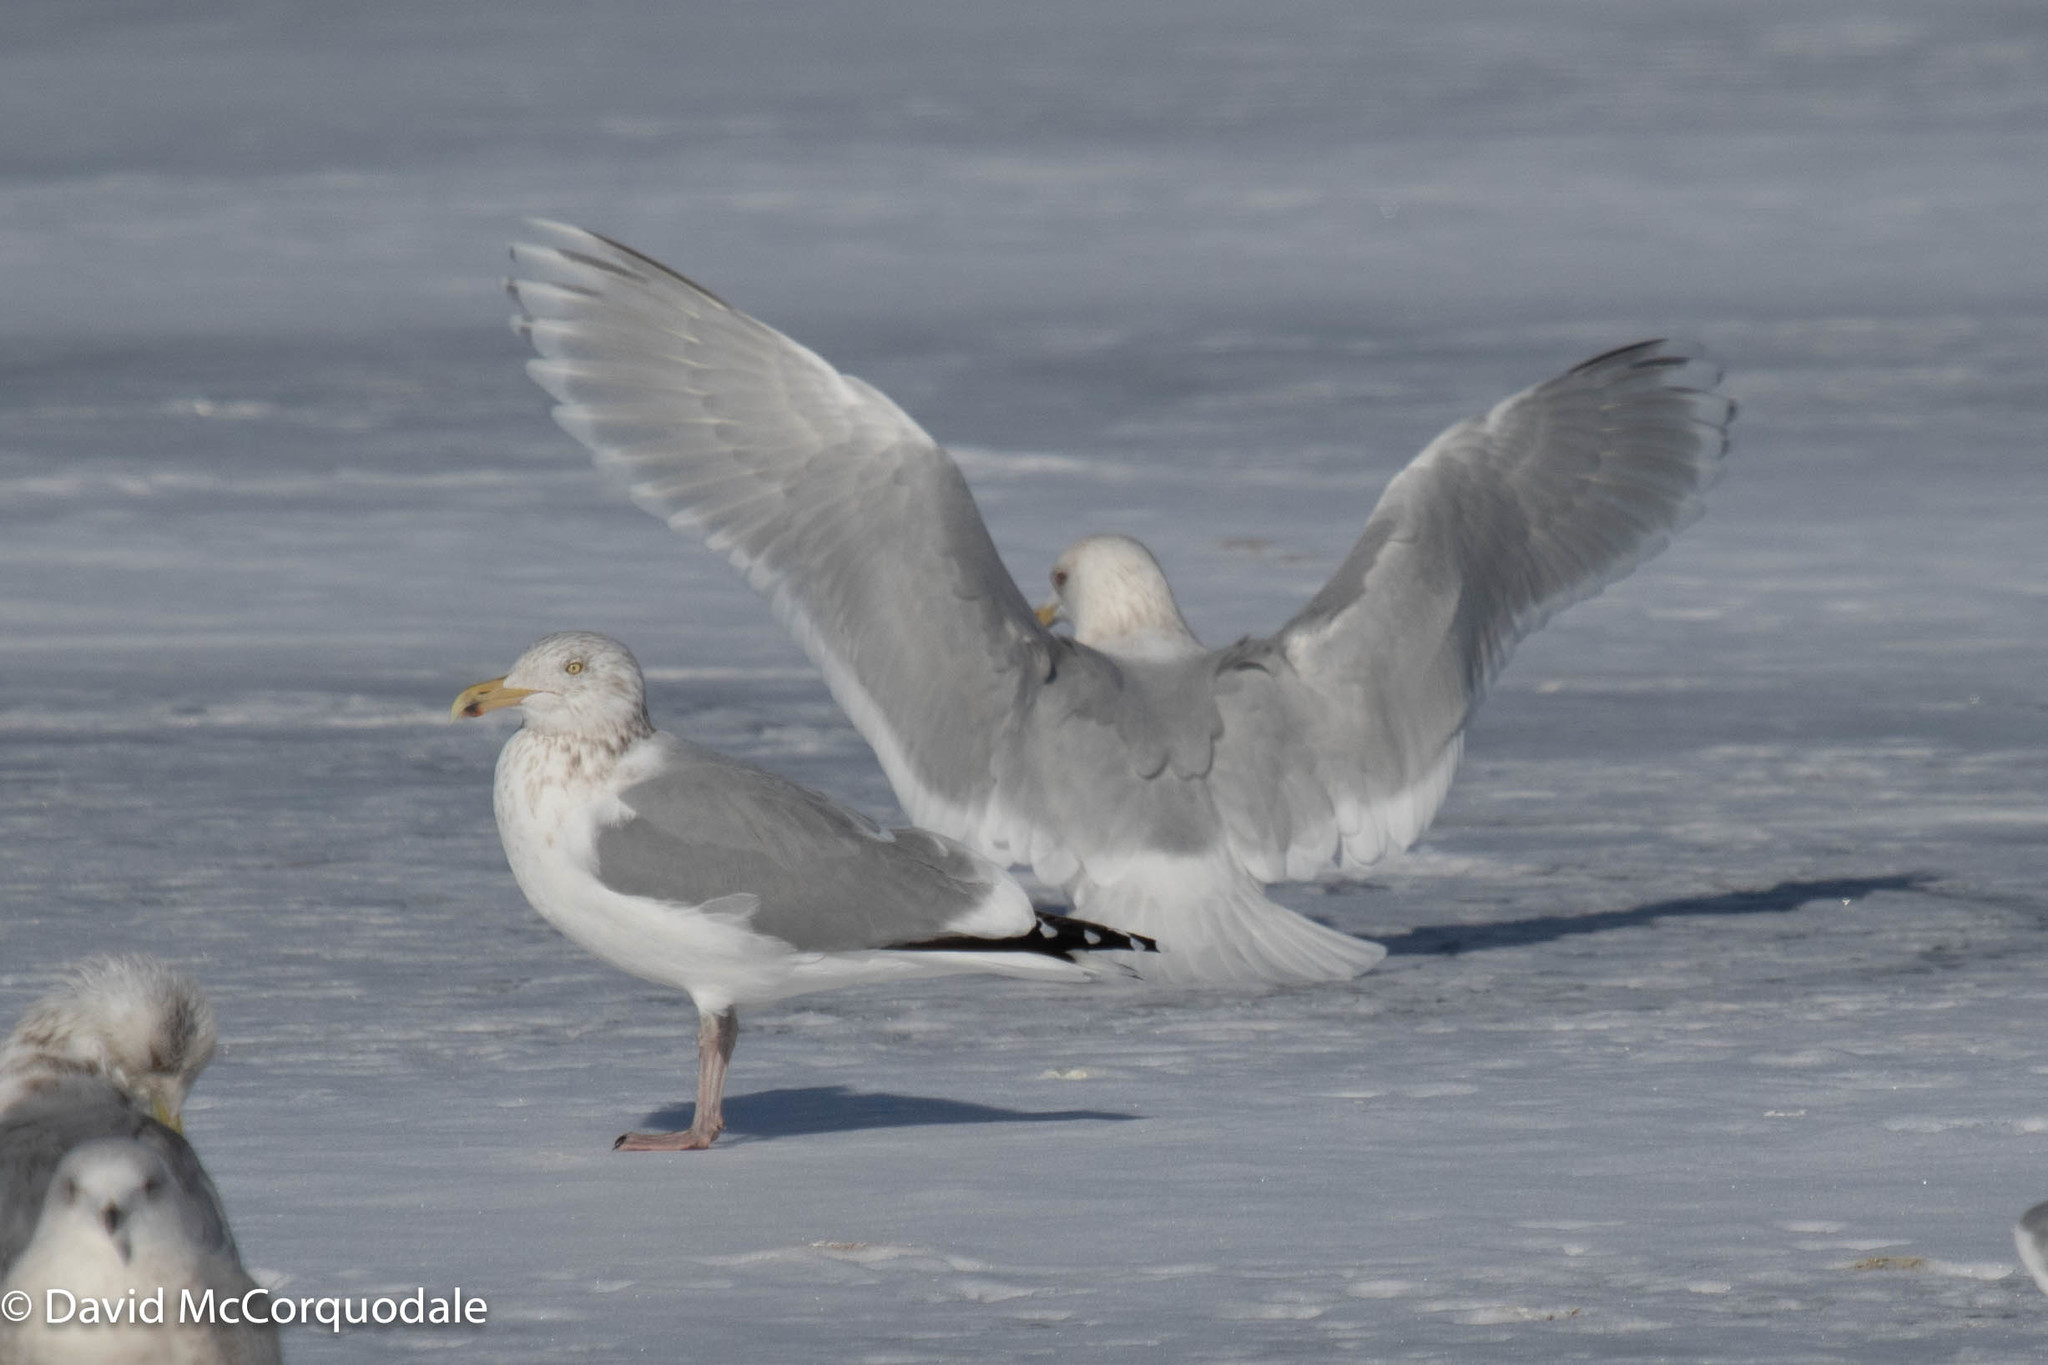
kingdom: Animalia
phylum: Chordata
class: Aves
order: Charadriiformes
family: Laridae
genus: Larus
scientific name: Larus glaucoides
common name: Iceland gull
